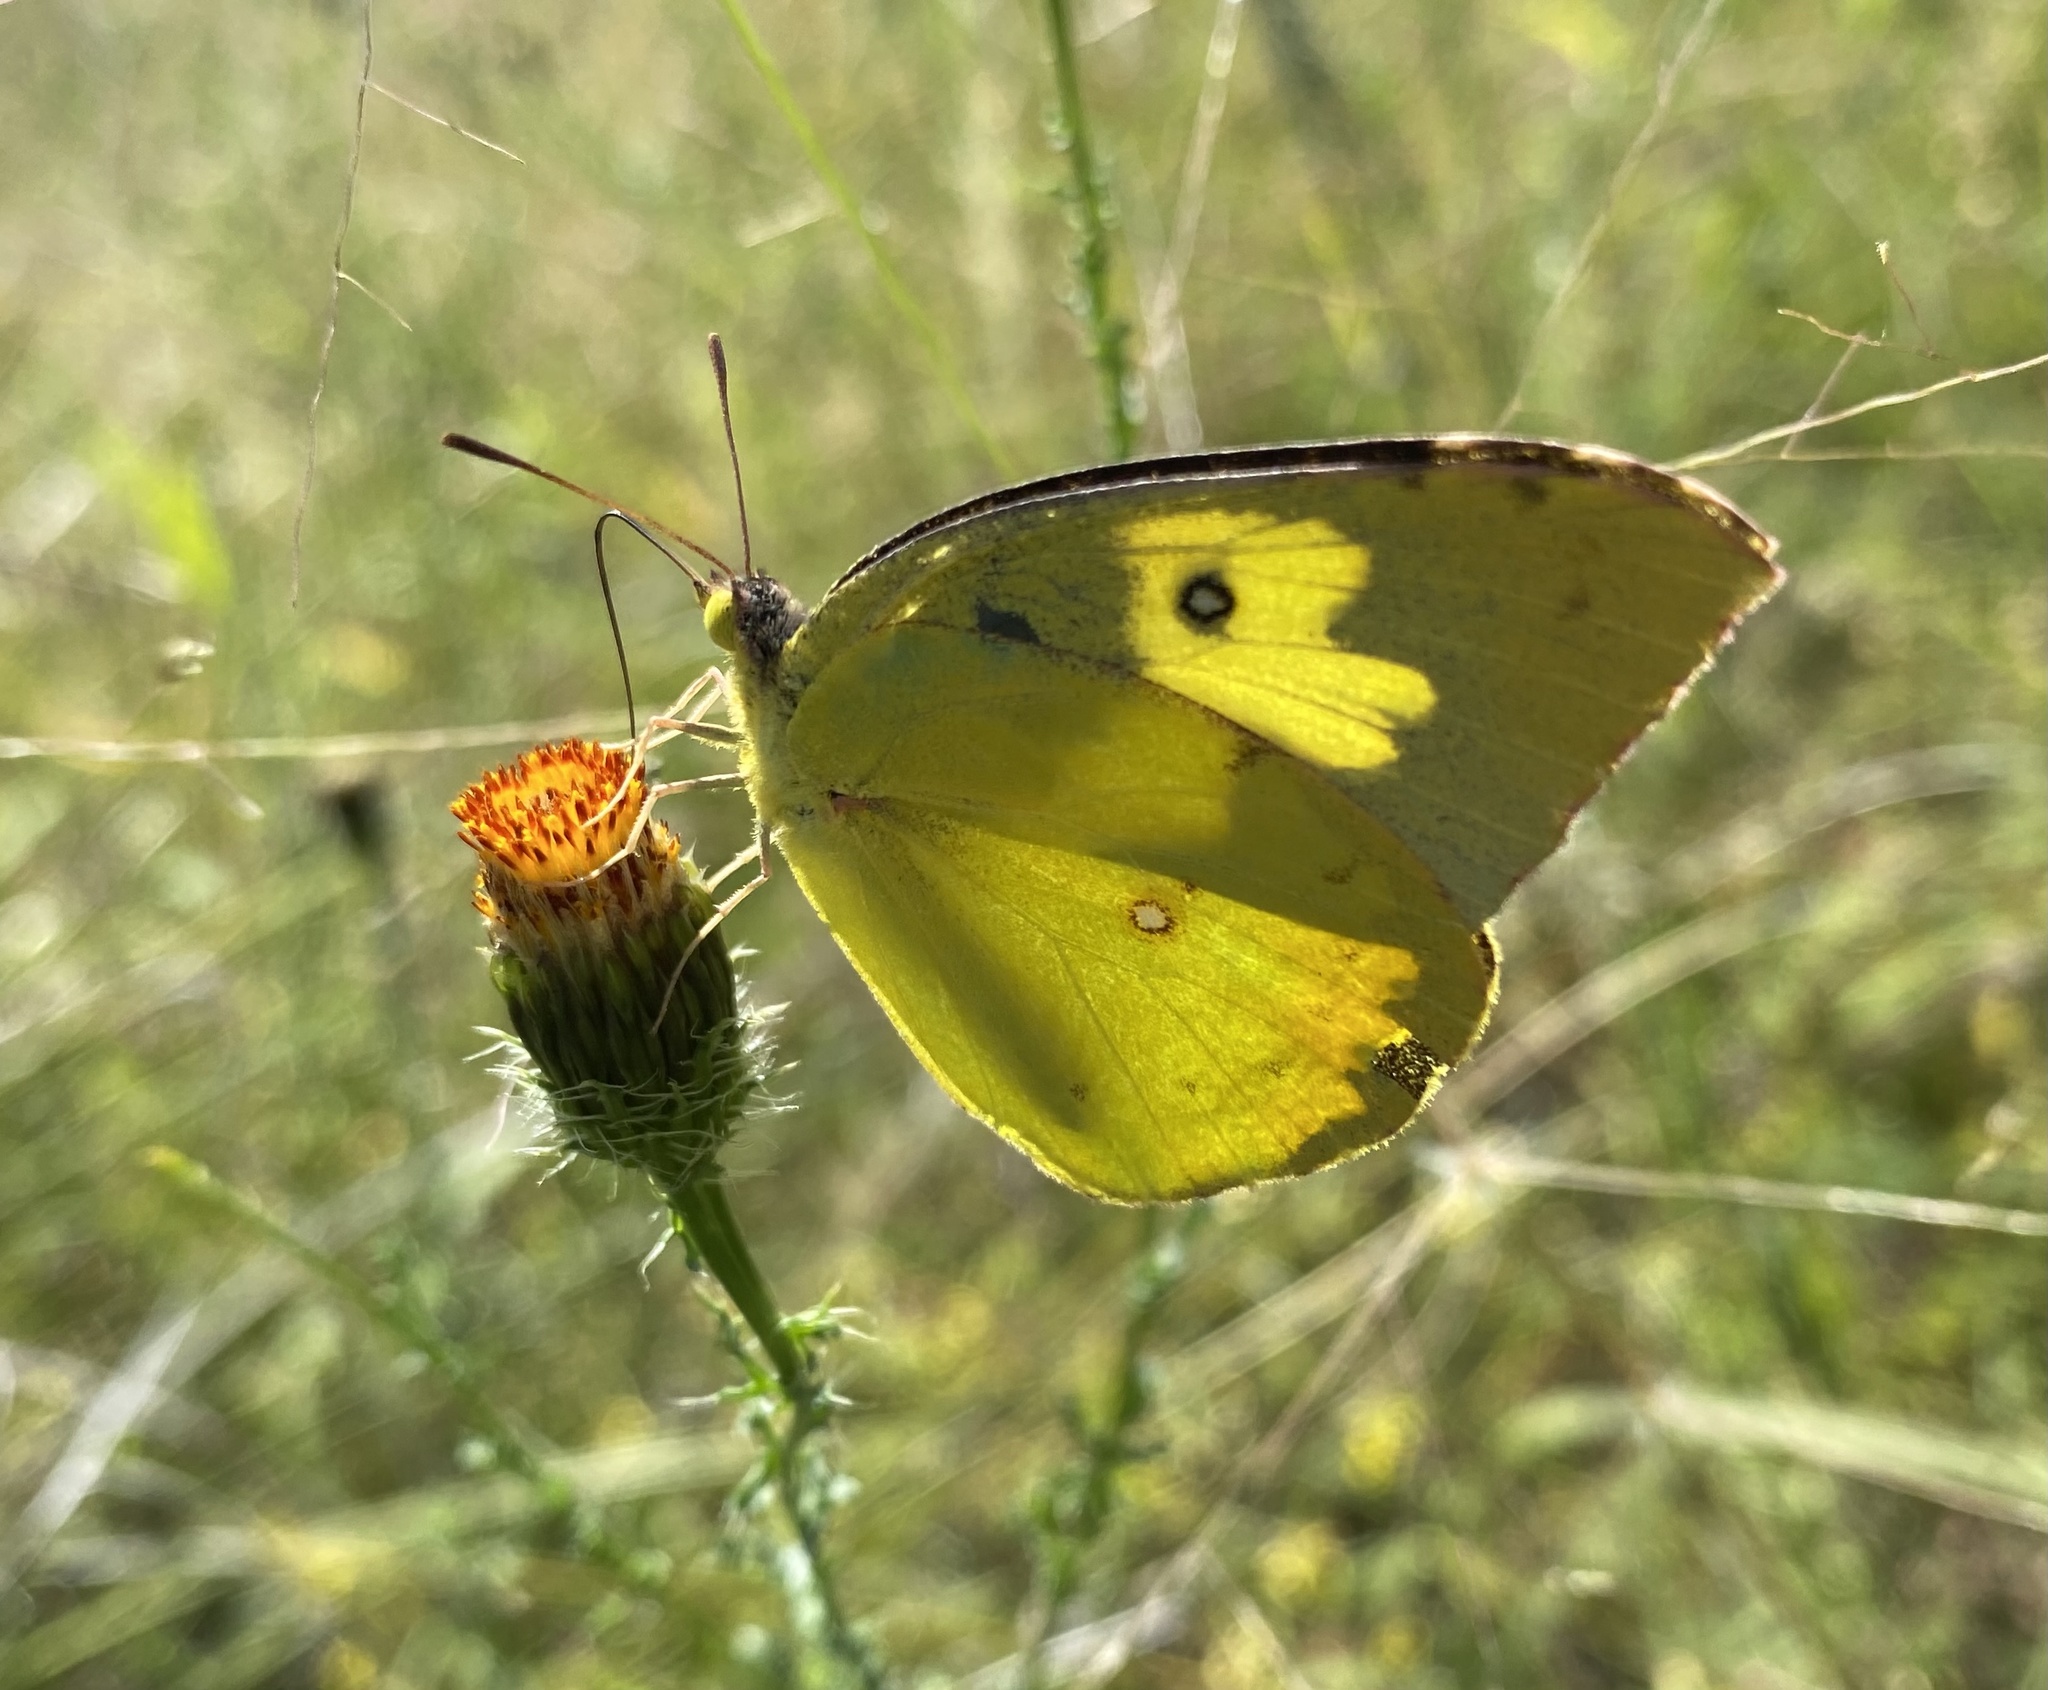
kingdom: Animalia
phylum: Arthropoda
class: Insecta
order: Lepidoptera
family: Pieridae
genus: Zerene
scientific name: Zerene cesonia
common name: Southern dogface
